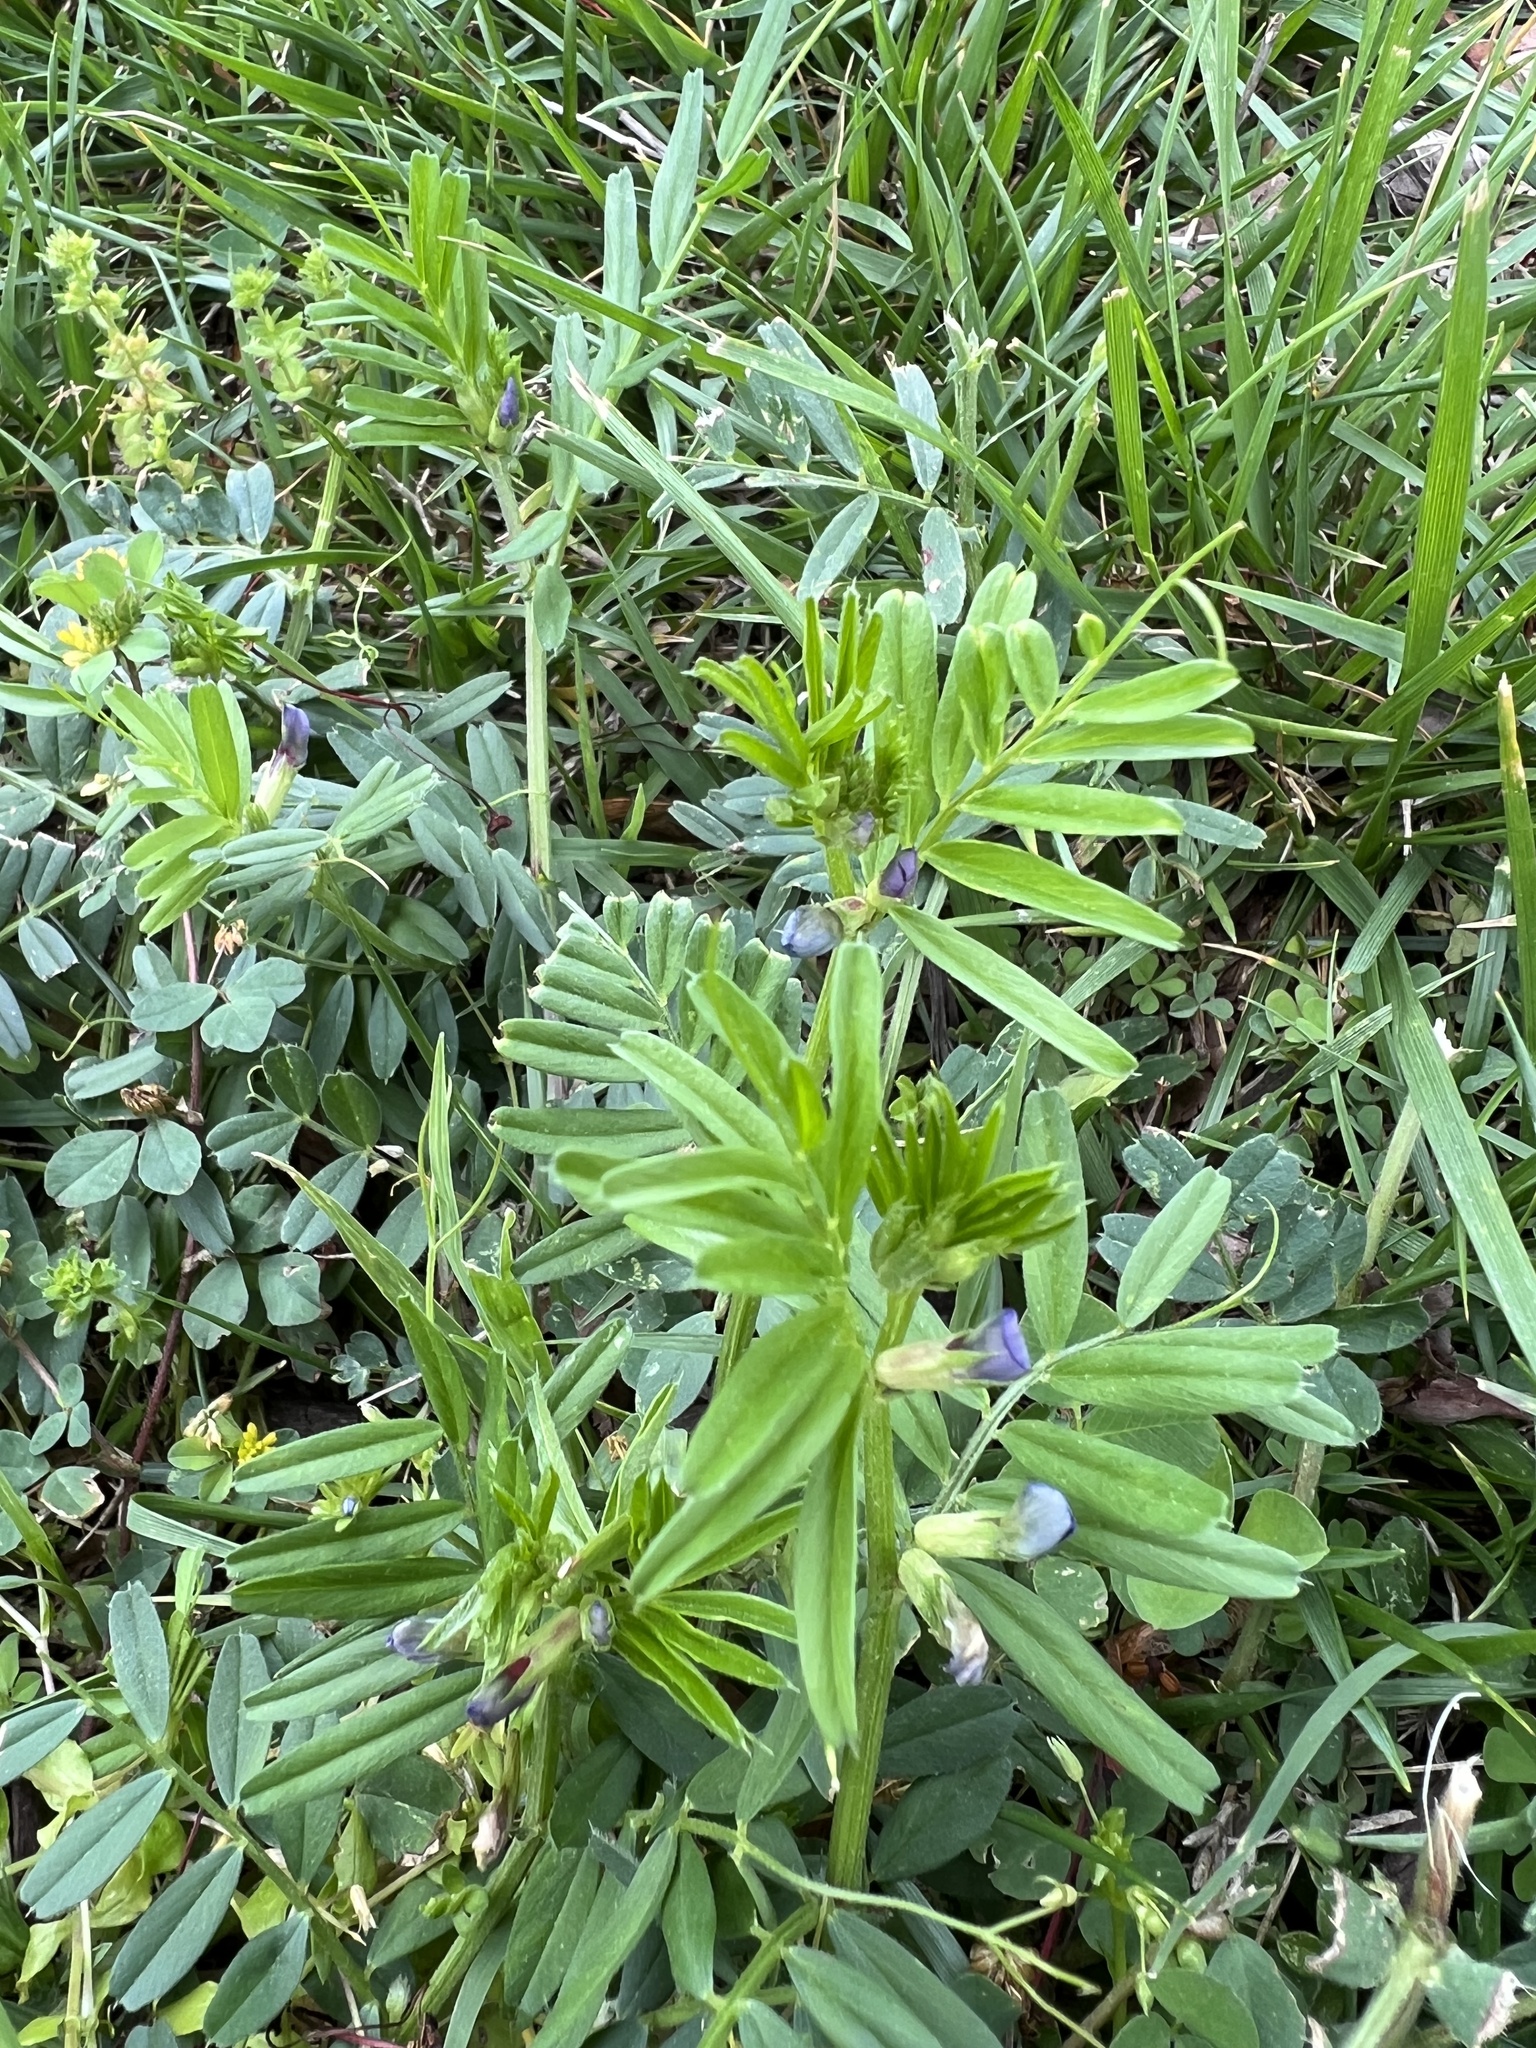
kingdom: Plantae
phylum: Tracheophyta
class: Magnoliopsida
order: Fabales
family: Fabaceae
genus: Vicia
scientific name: Vicia sativa
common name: Garden vetch
